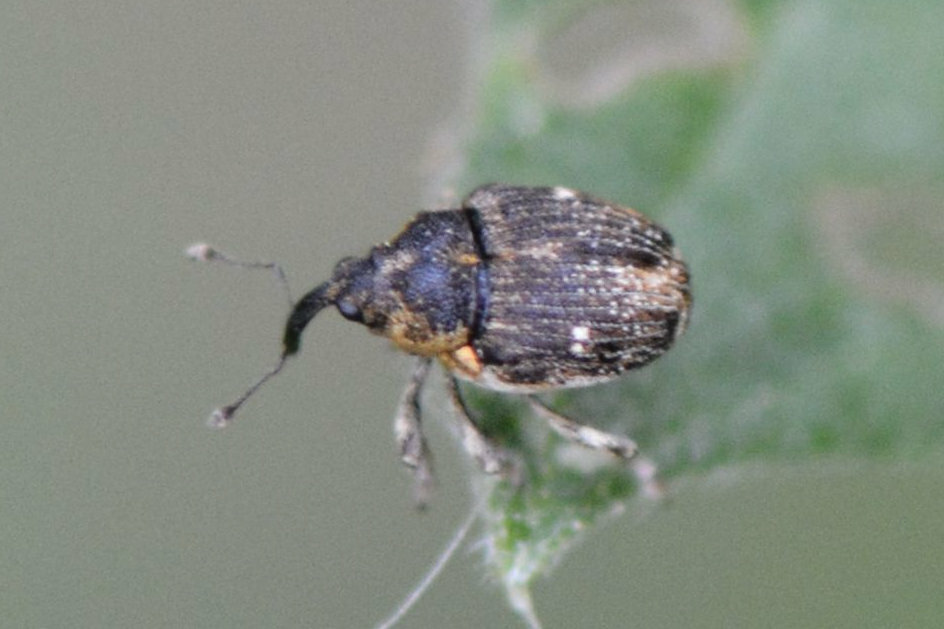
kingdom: Animalia
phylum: Arthropoda
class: Insecta
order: Coleoptera
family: Curculionidae
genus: Nedyus
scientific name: Nedyus quadrimaculatus
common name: Small nettle weevil
